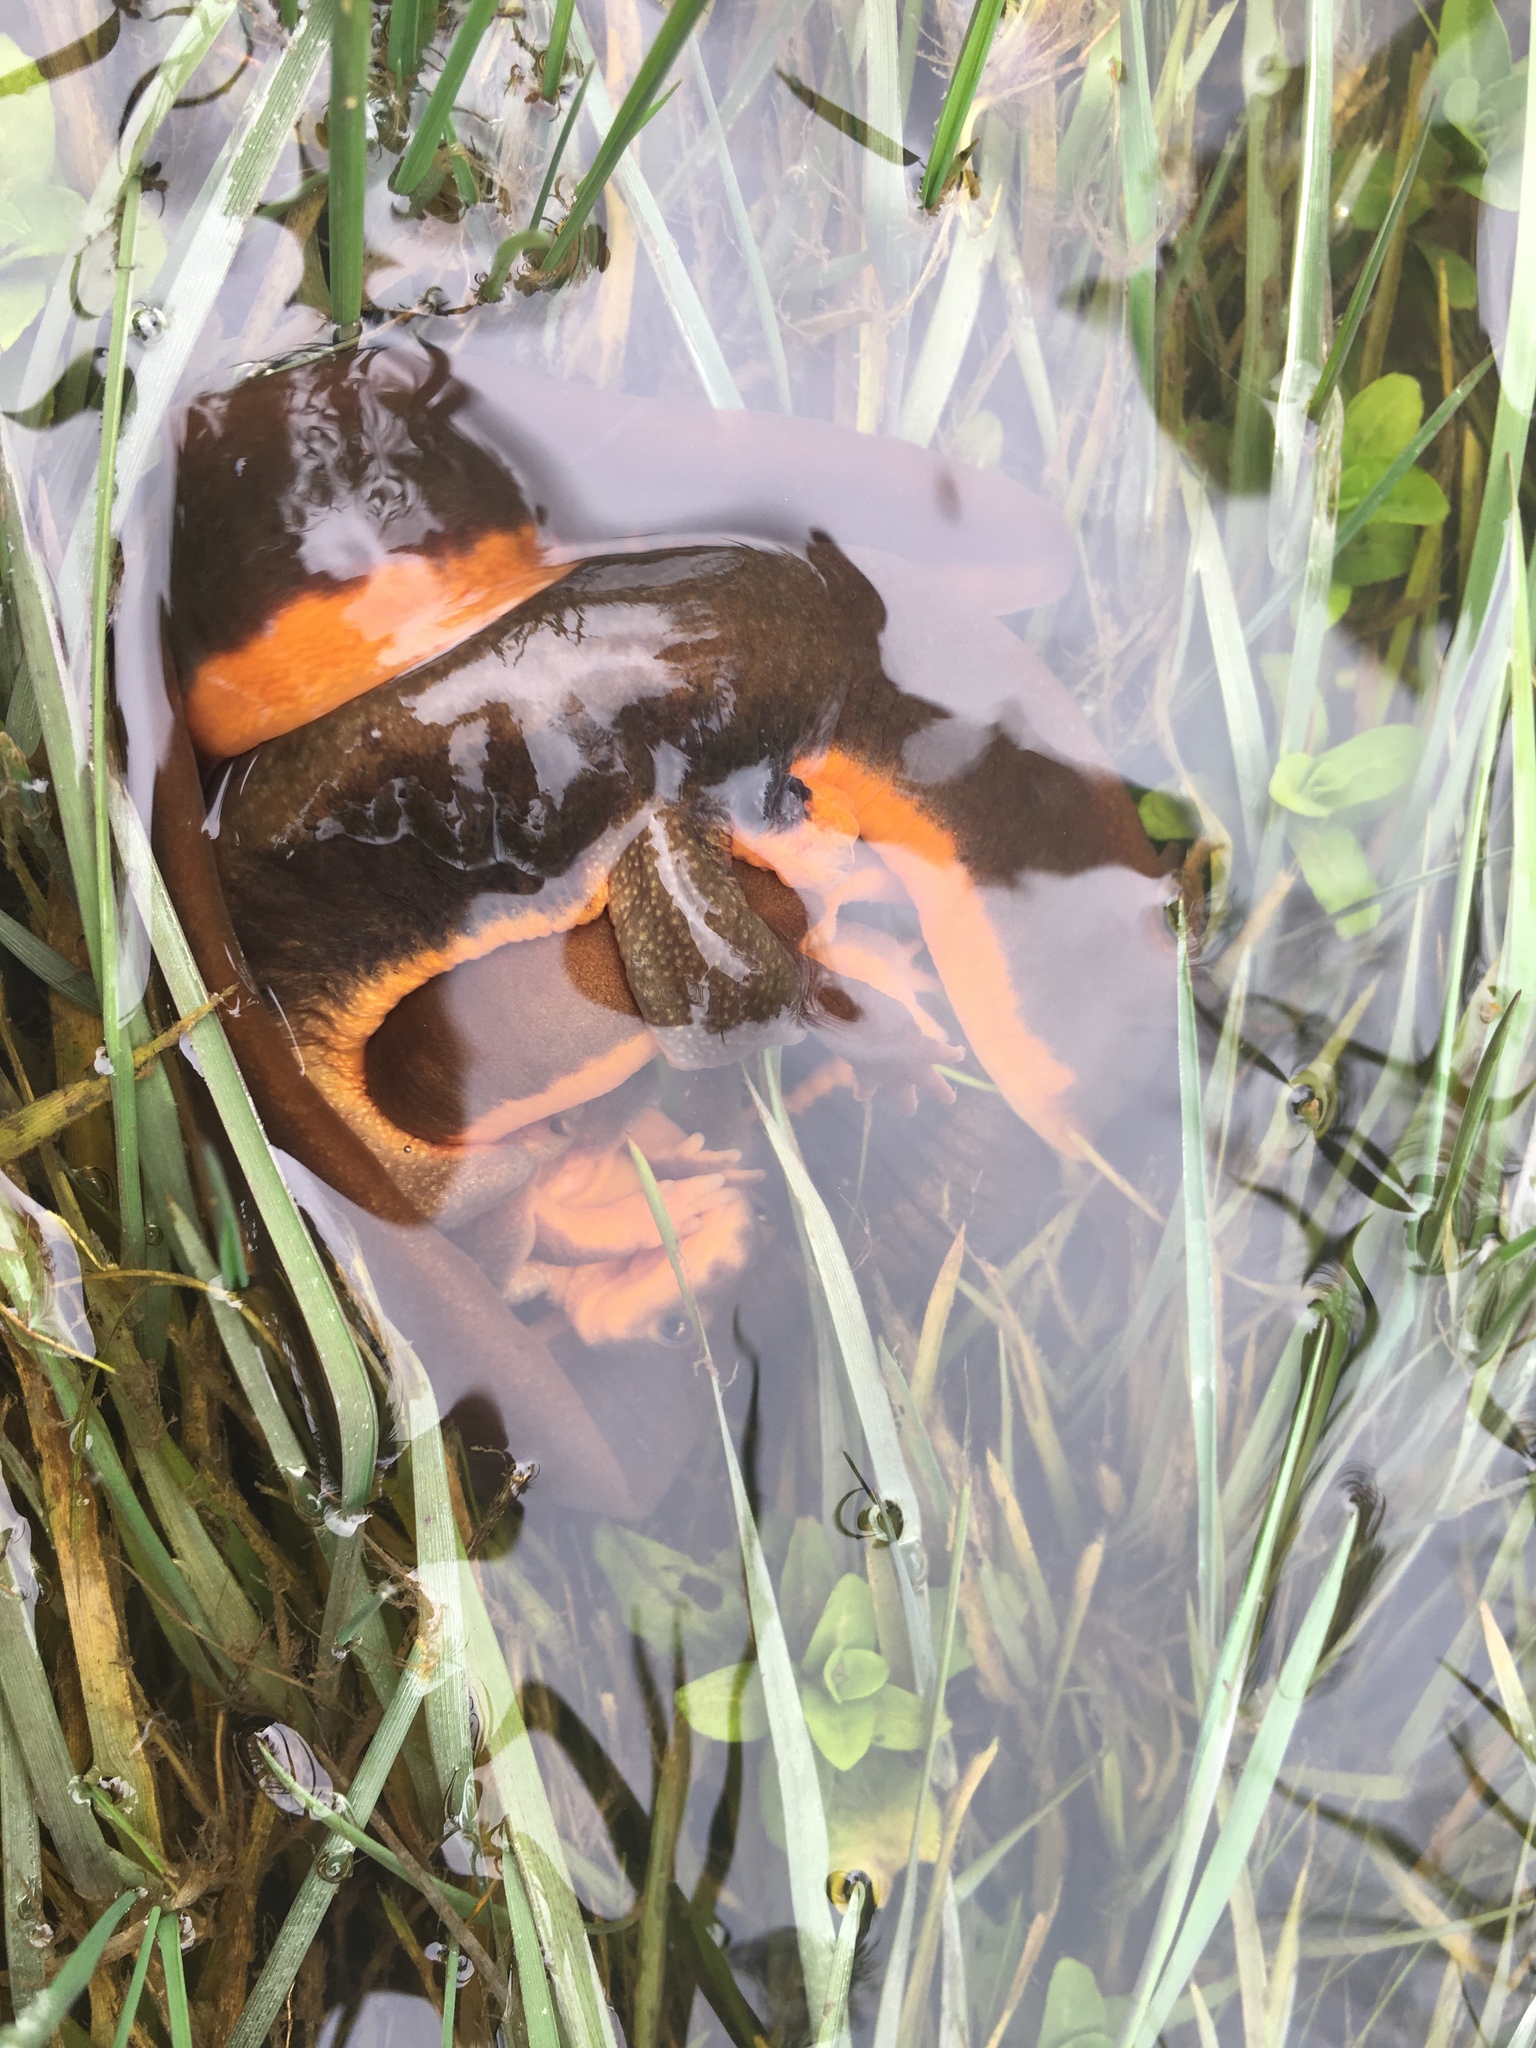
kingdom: Animalia
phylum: Chordata
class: Amphibia
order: Caudata
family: Salamandridae
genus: Taricha
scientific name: Taricha granulosa
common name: Roughskin newt
